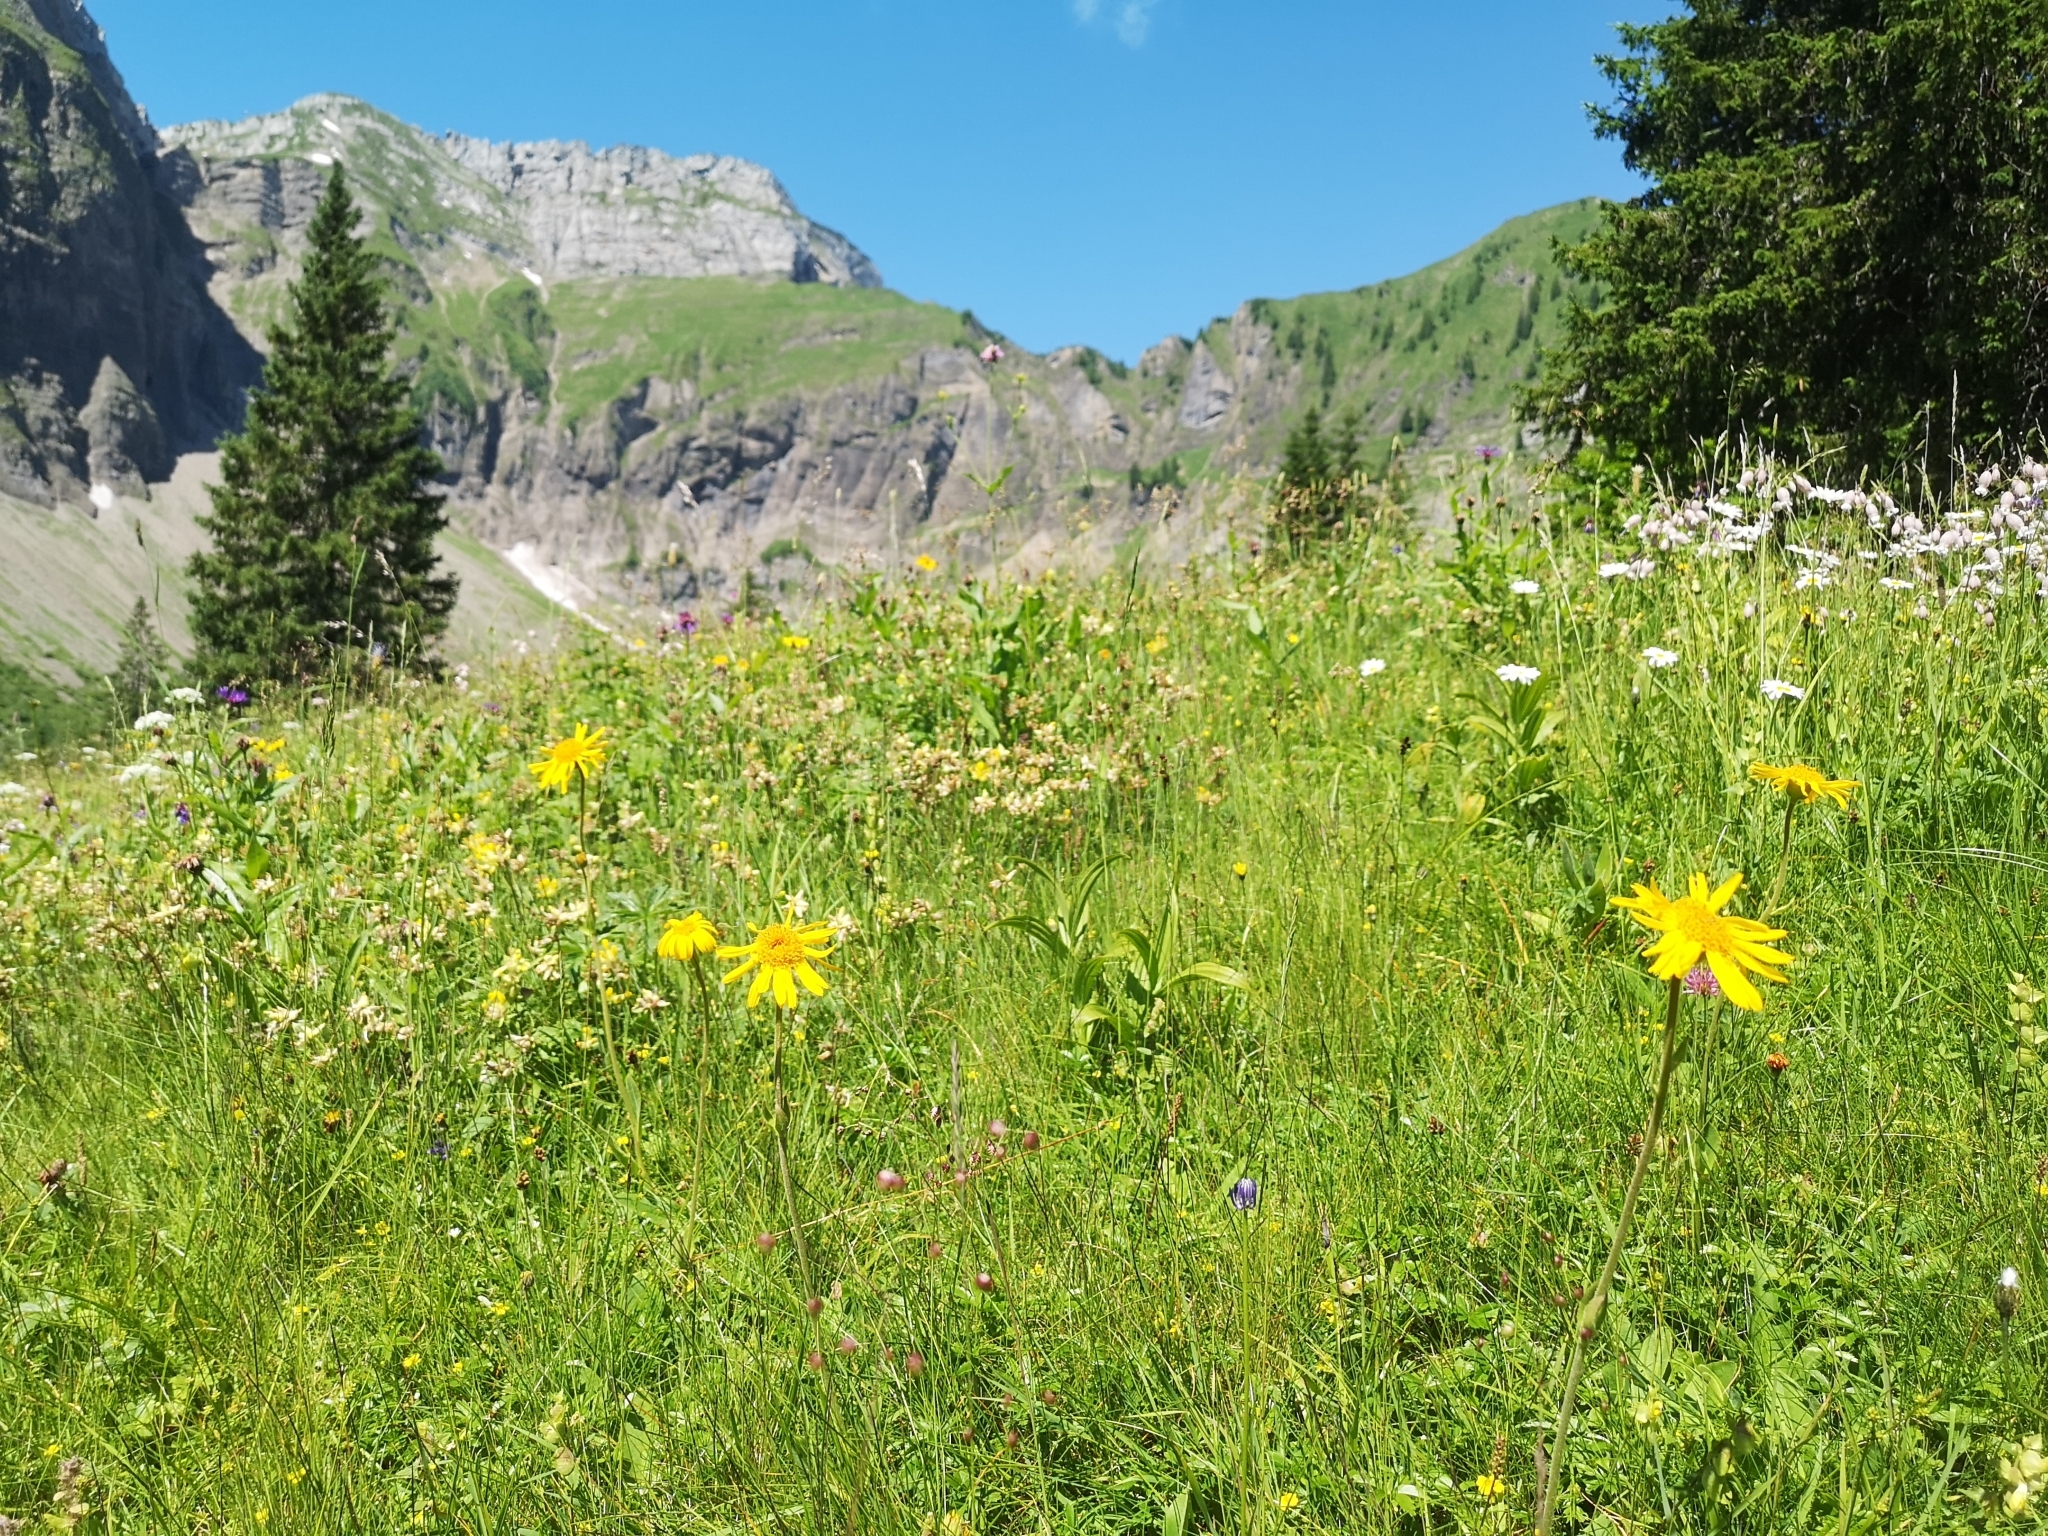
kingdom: Plantae
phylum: Tracheophyta
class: Magnoliopsida
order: Asterales
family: Asteraceae
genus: Arnica
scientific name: Arnica montana
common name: Leopard's bane
